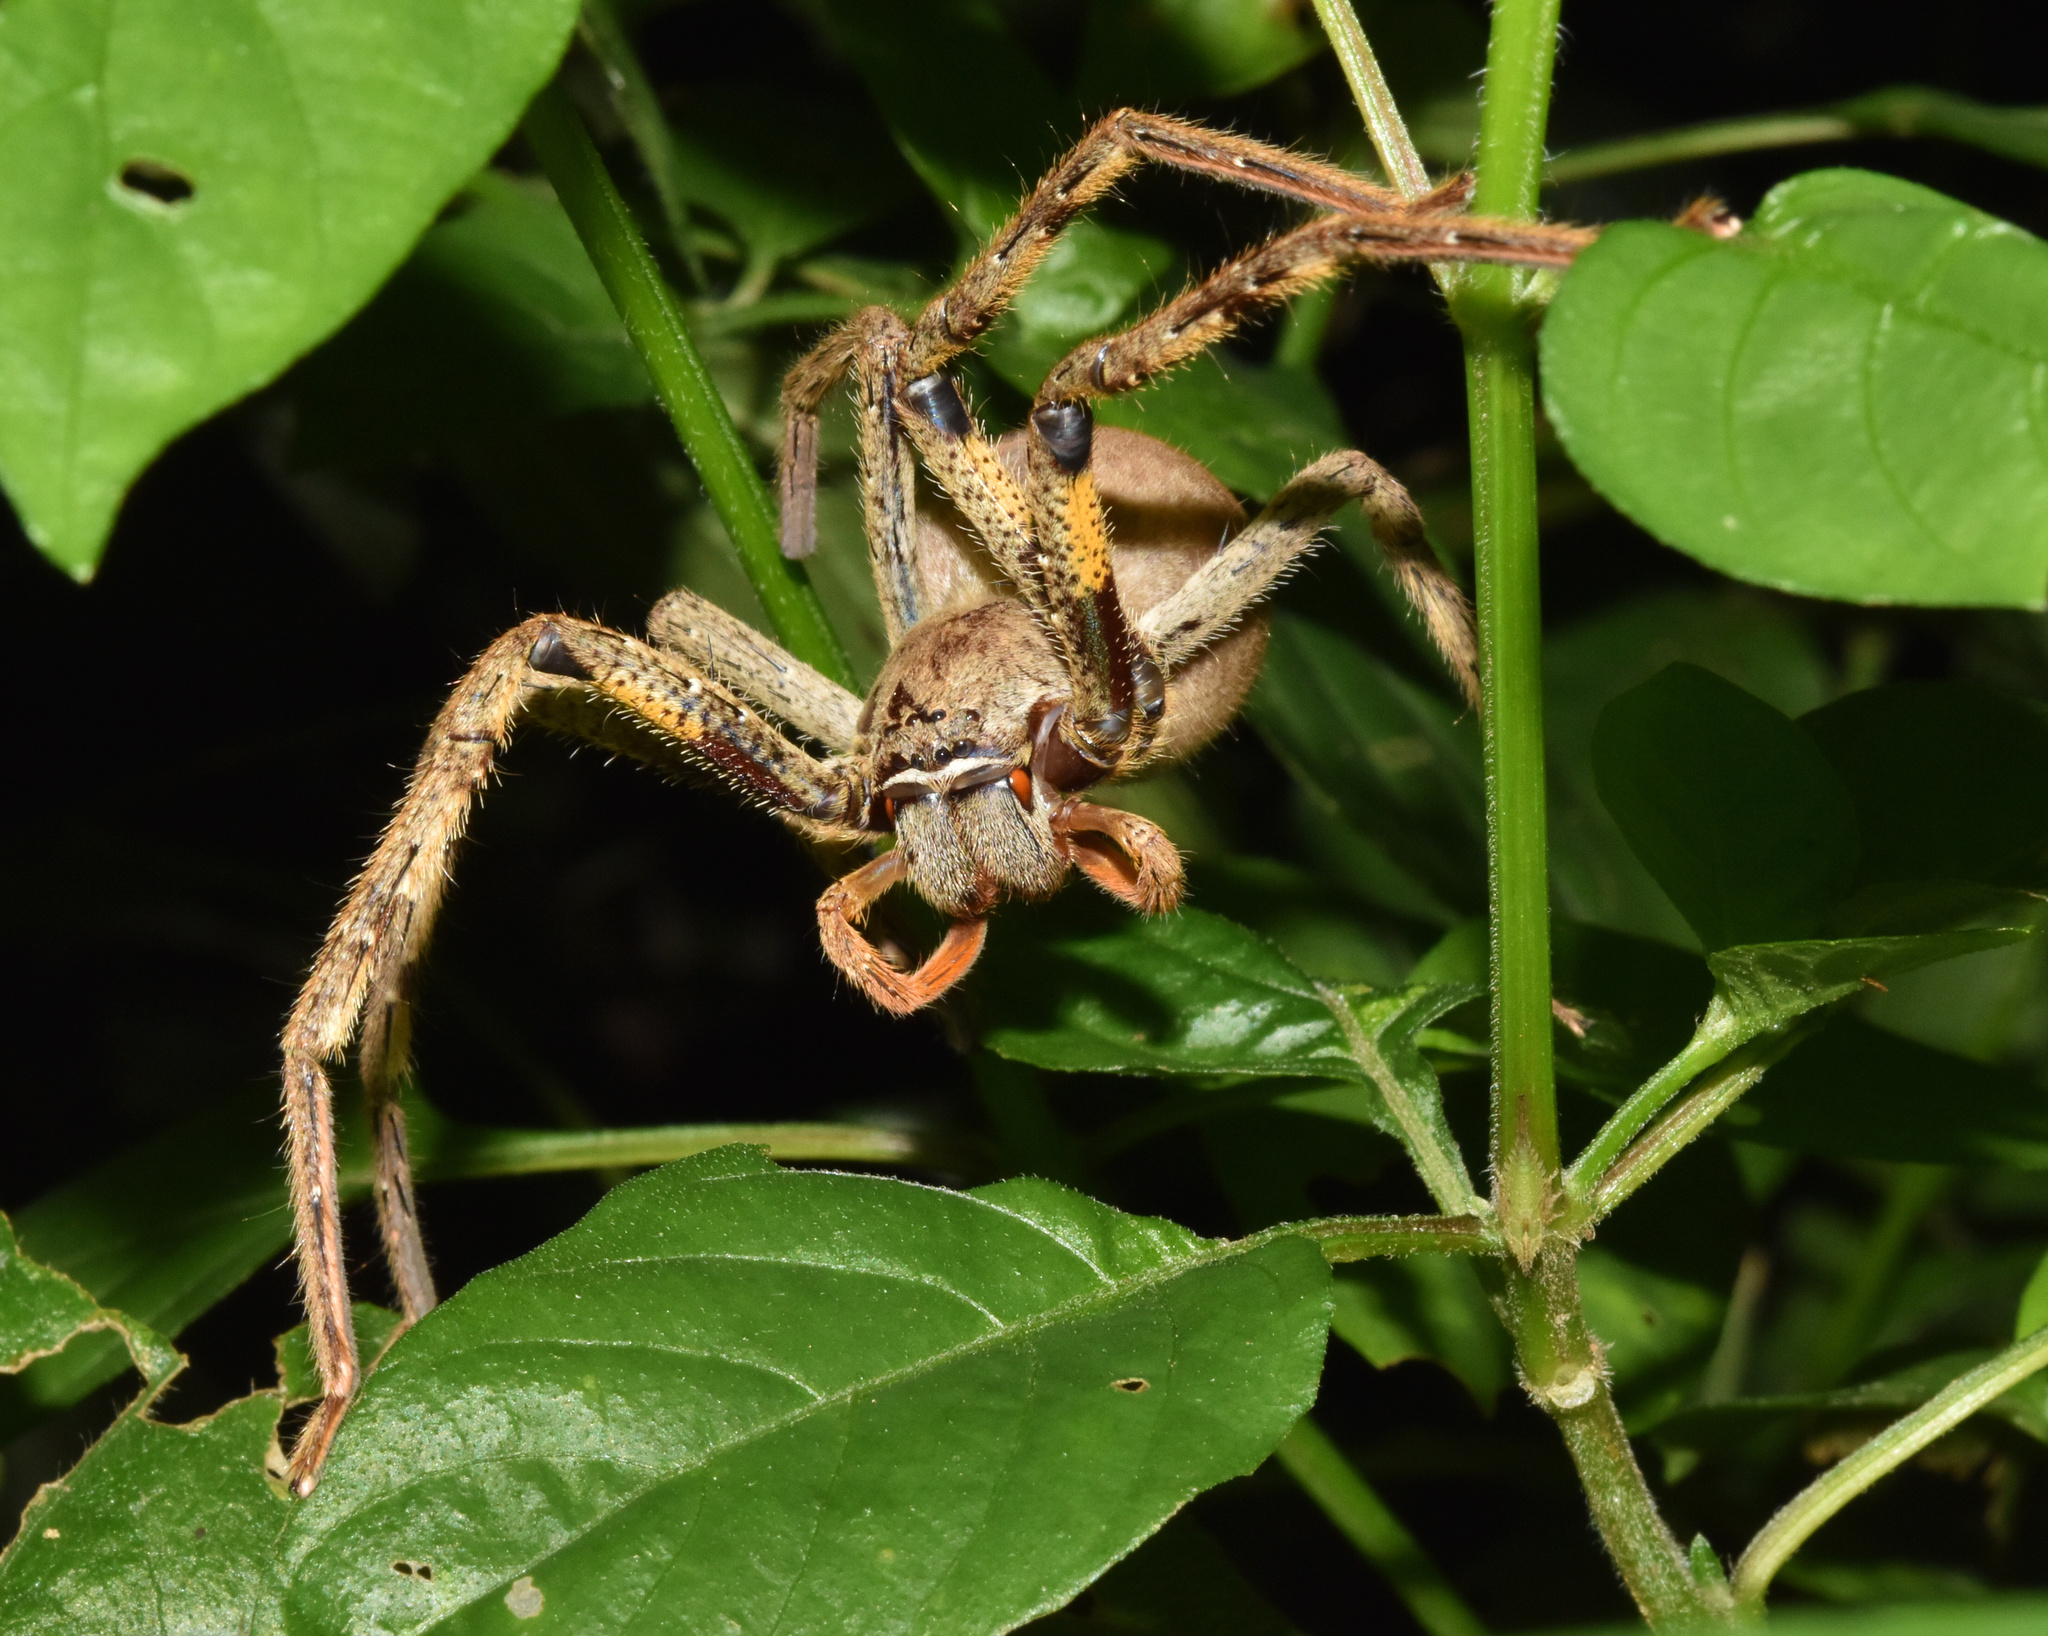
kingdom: Animalia
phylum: Arthropoda
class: Arachnida
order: Araneae
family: Sparassidae
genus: Palystes
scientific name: Palystes superciliosus
